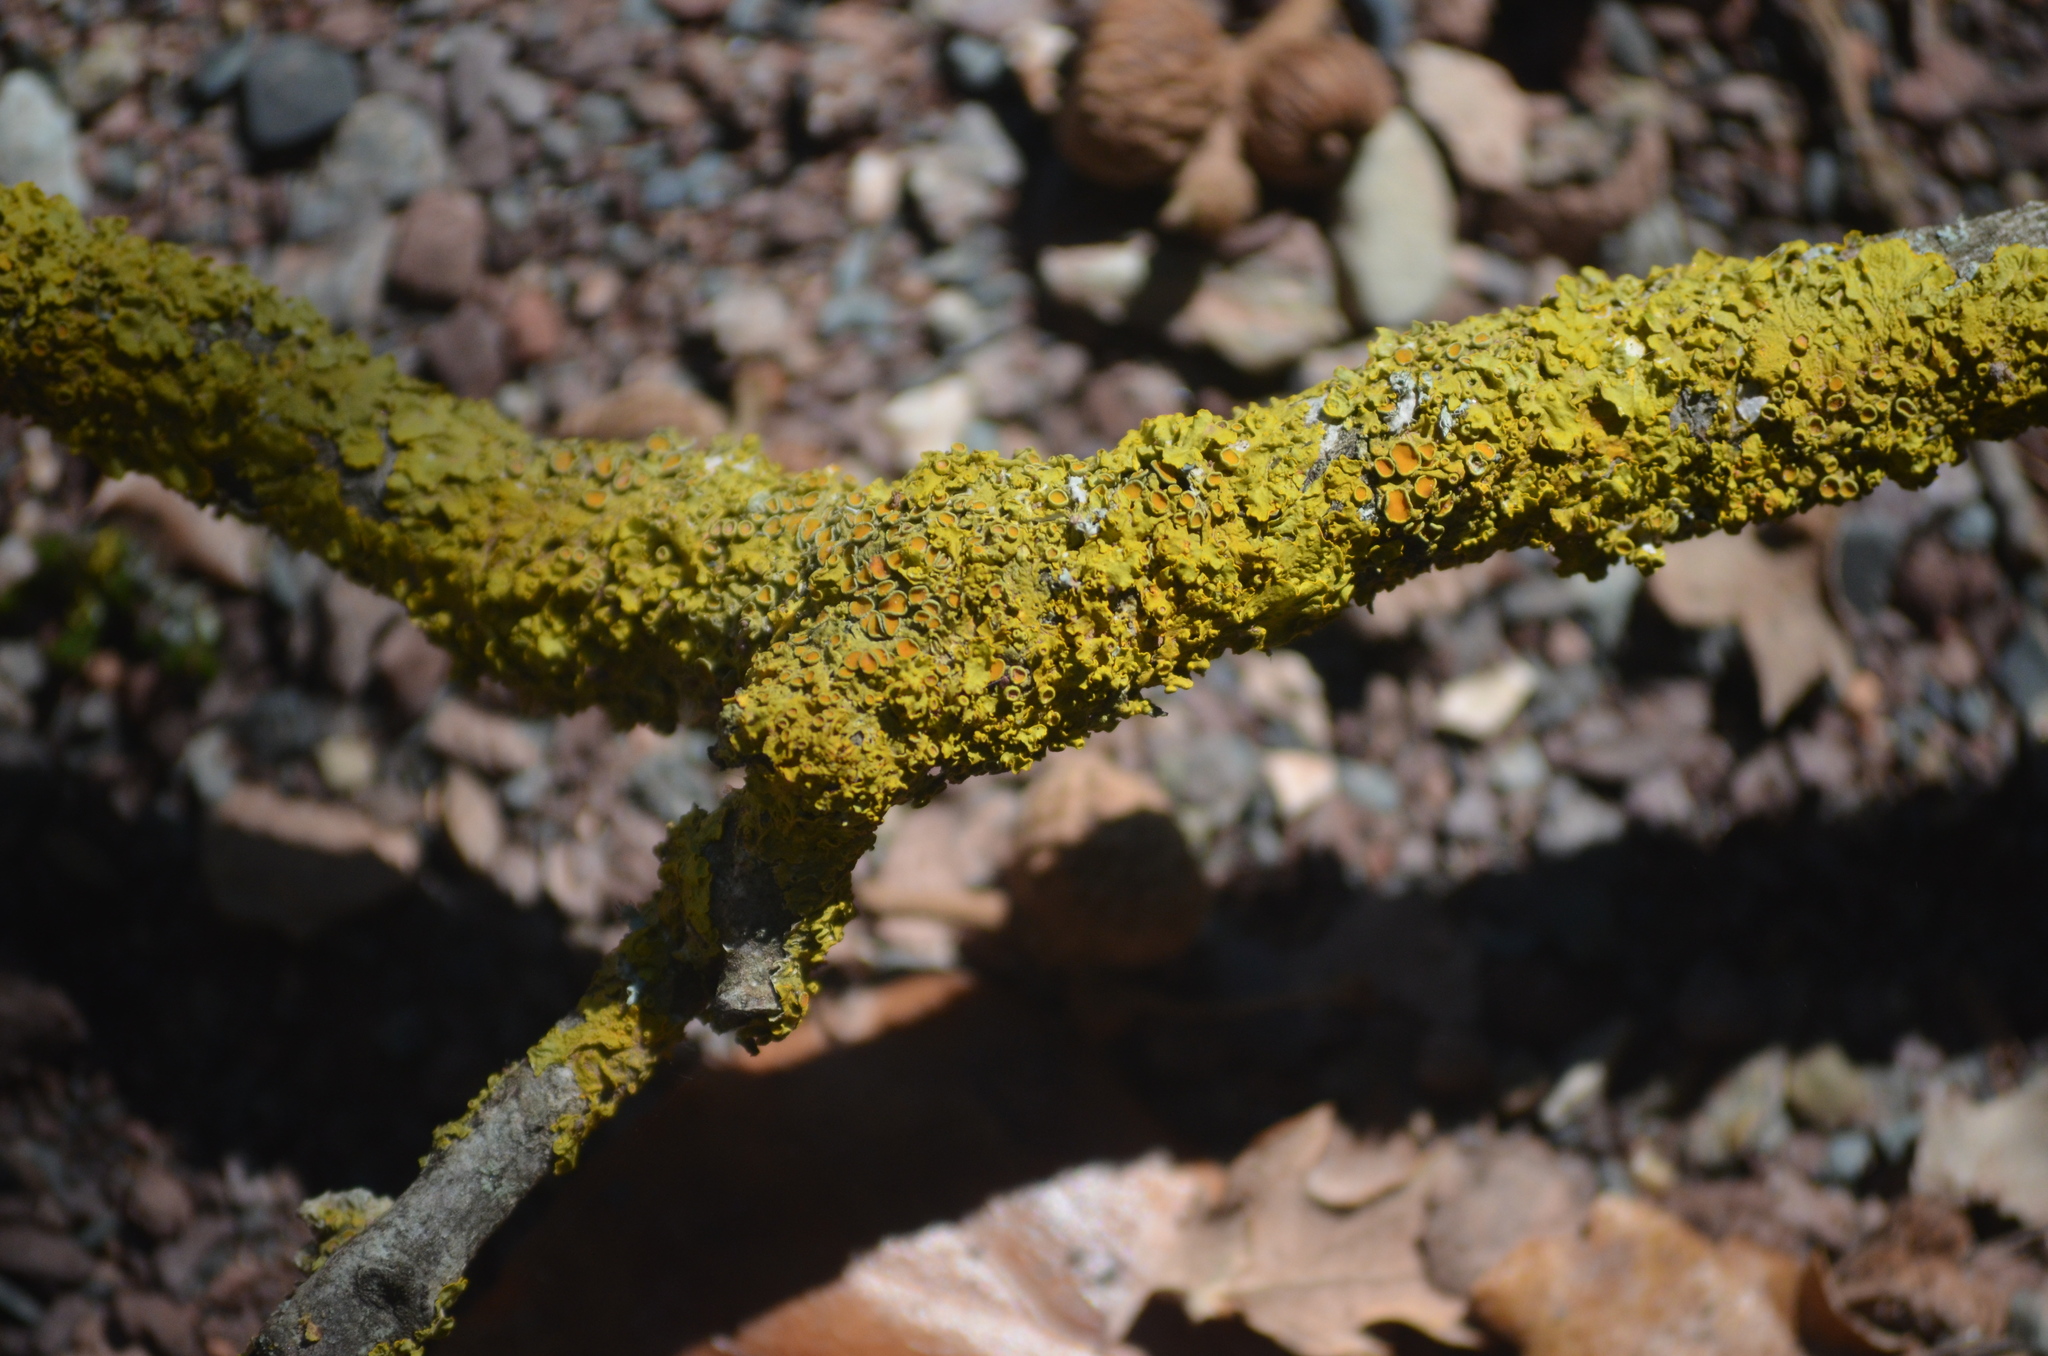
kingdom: Fungi
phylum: Ascomycota
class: Lecanoromycetes
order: Teloschistales
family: Teloschistaceae
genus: Xanthoria
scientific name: Xanthoria parietina
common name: Common orange lichen
